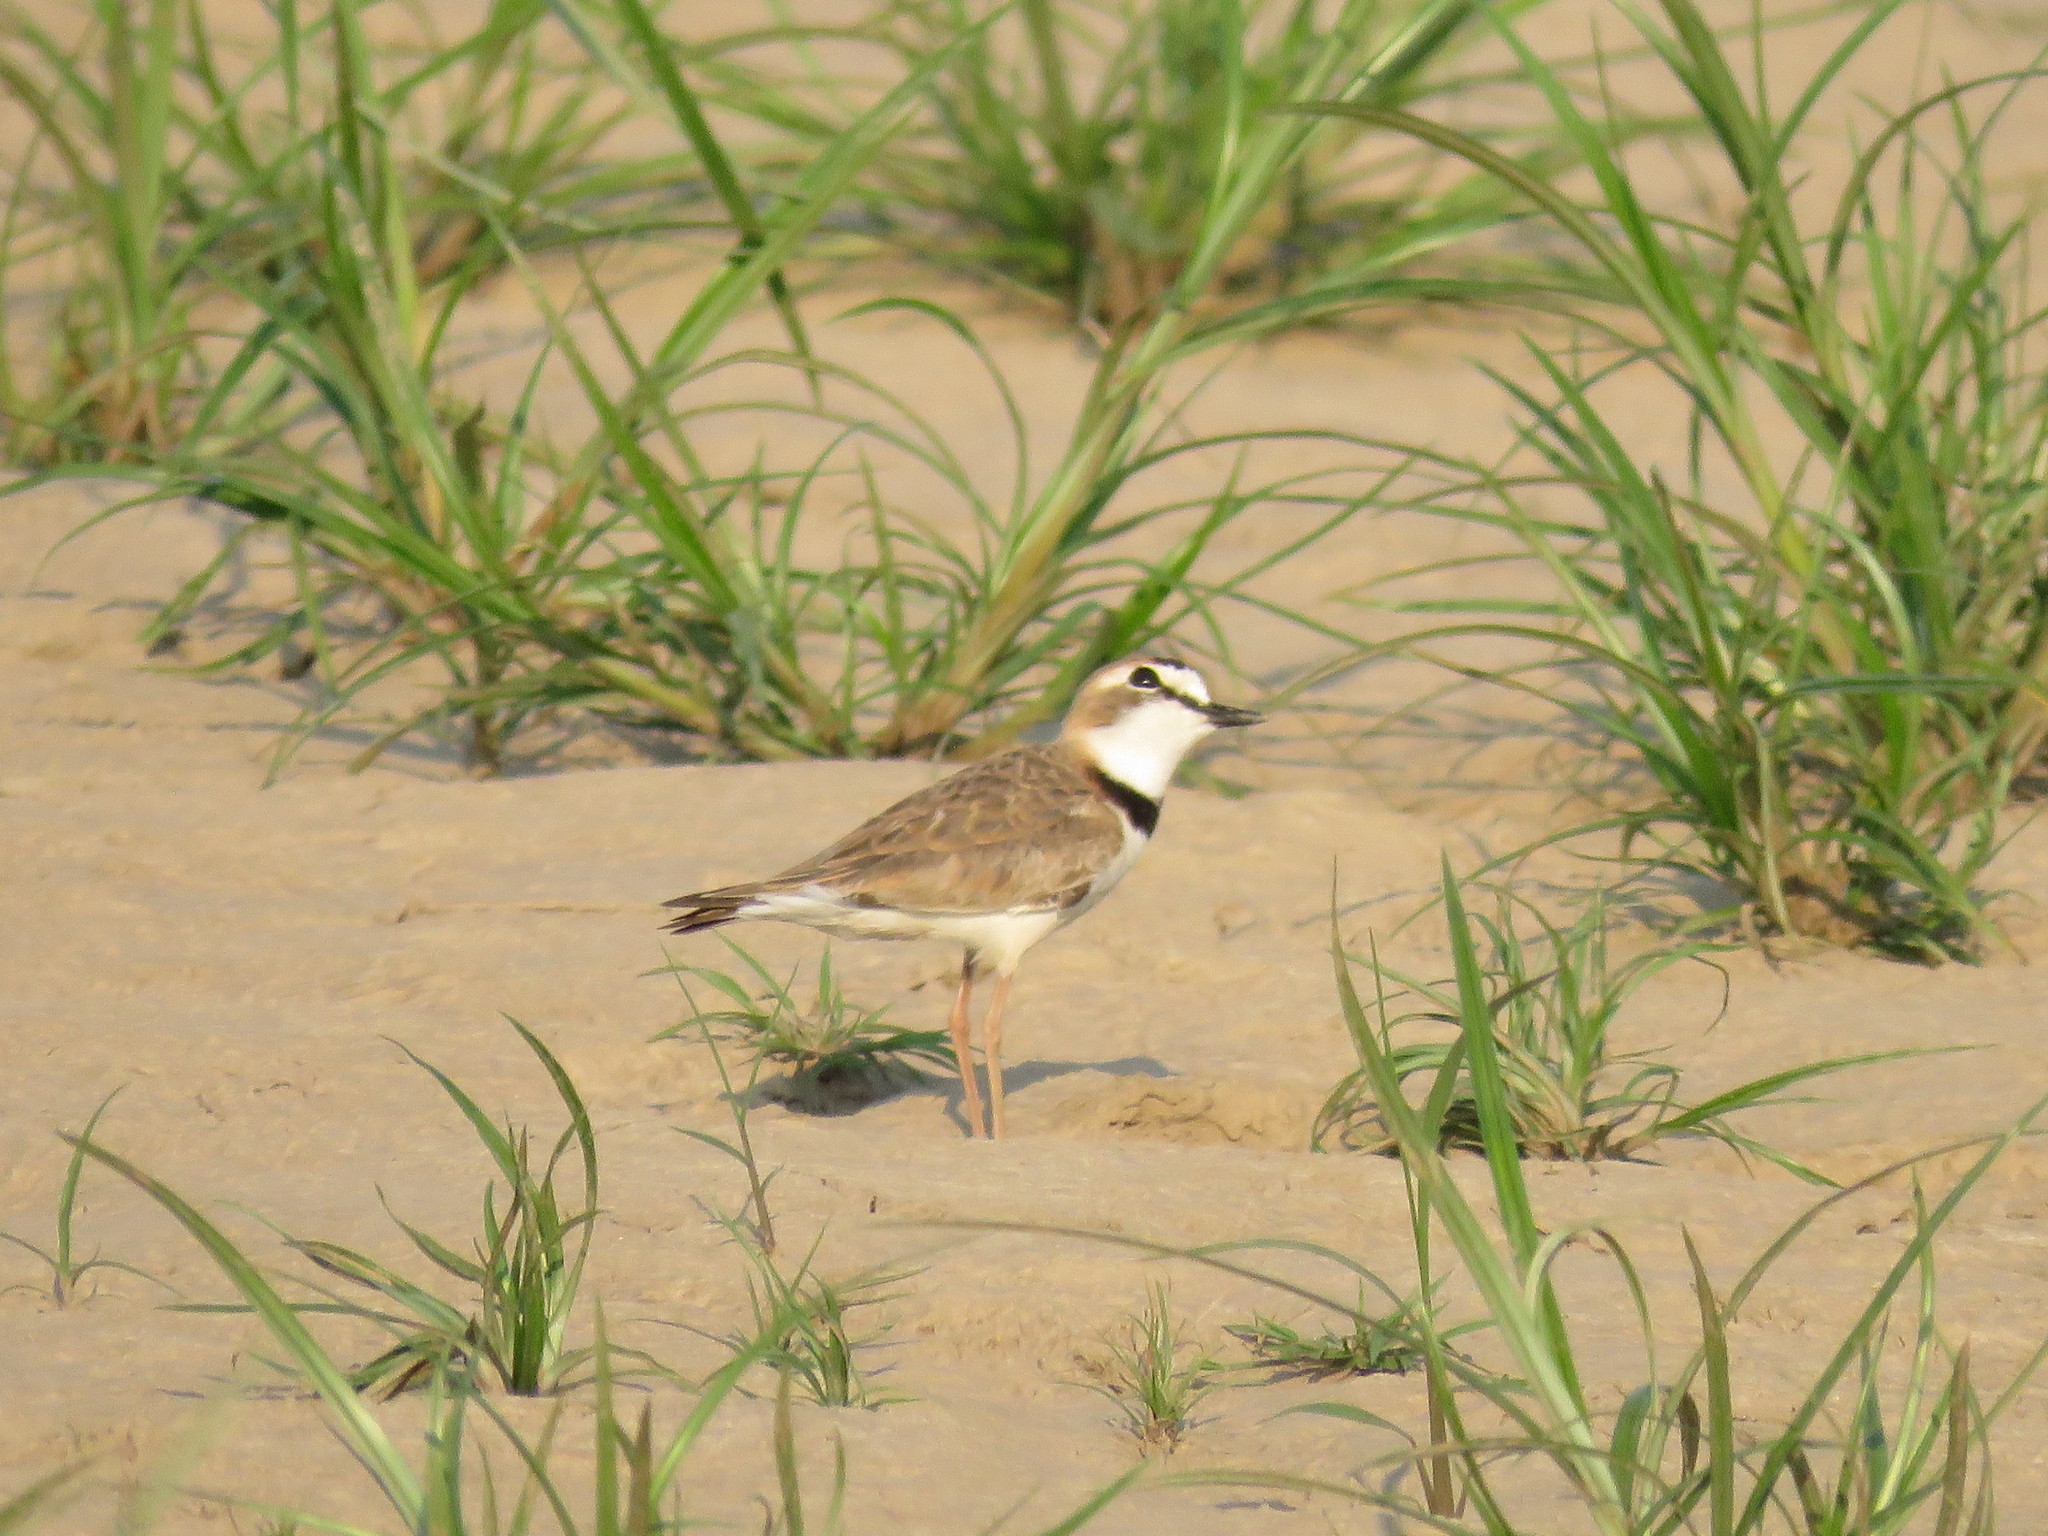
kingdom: Animalia
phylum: Chordata
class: Aves
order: Charadriiformes
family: Charadriidae
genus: Anarhynchus
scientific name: Anarhynchus
